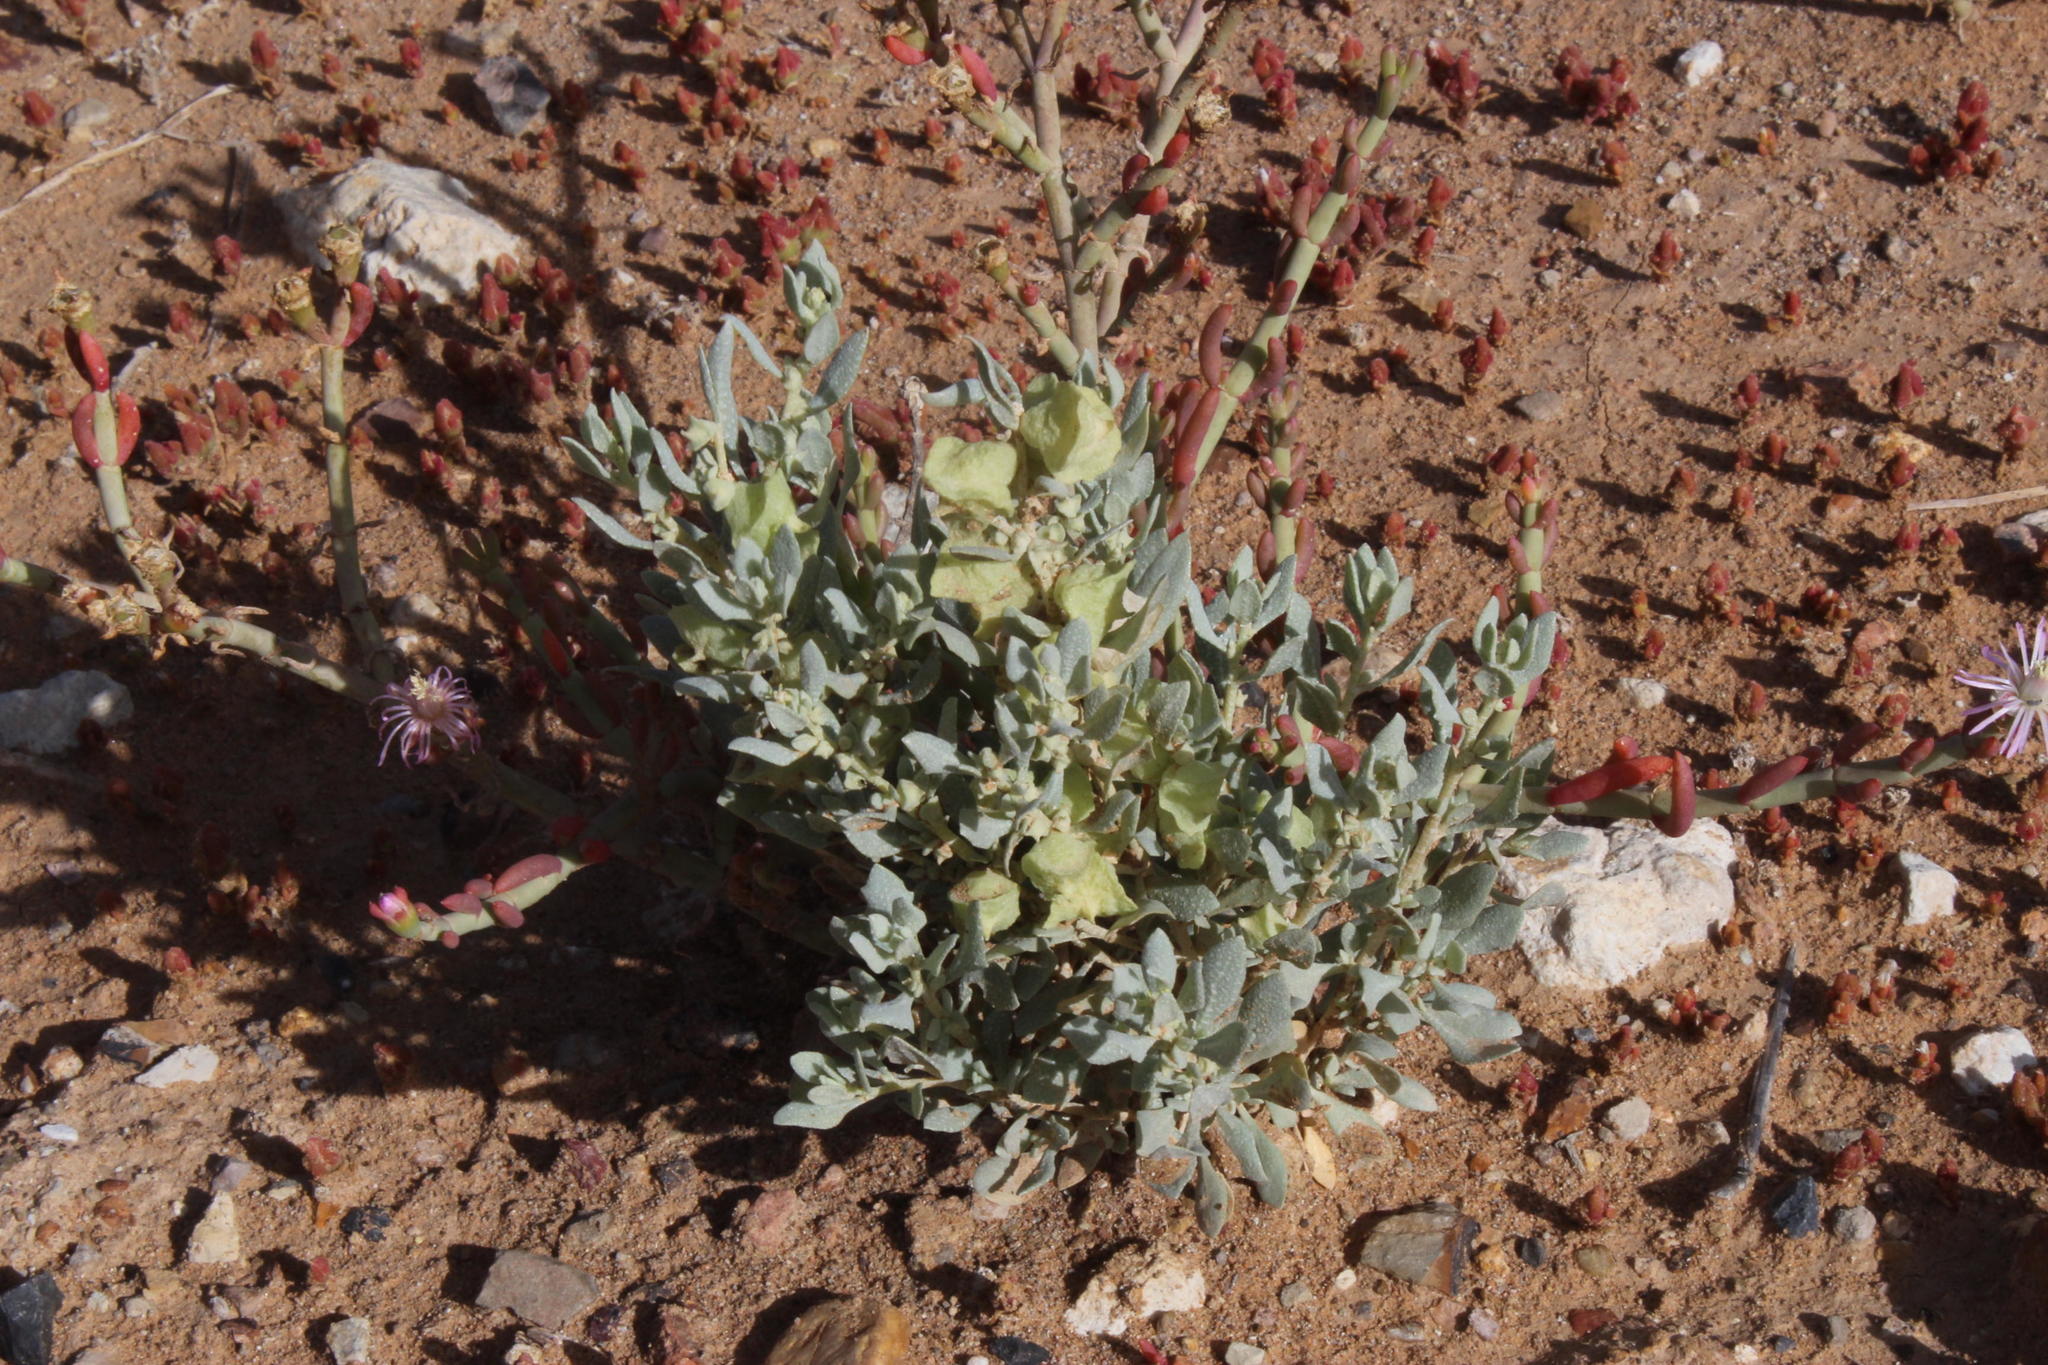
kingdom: Plantae
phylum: Tracheophyta
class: Magnoliopsida
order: Caryophyllales
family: Amaranthaceae
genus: Atriplex
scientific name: Atriplex lindleyi
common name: Lindley's saltbush
